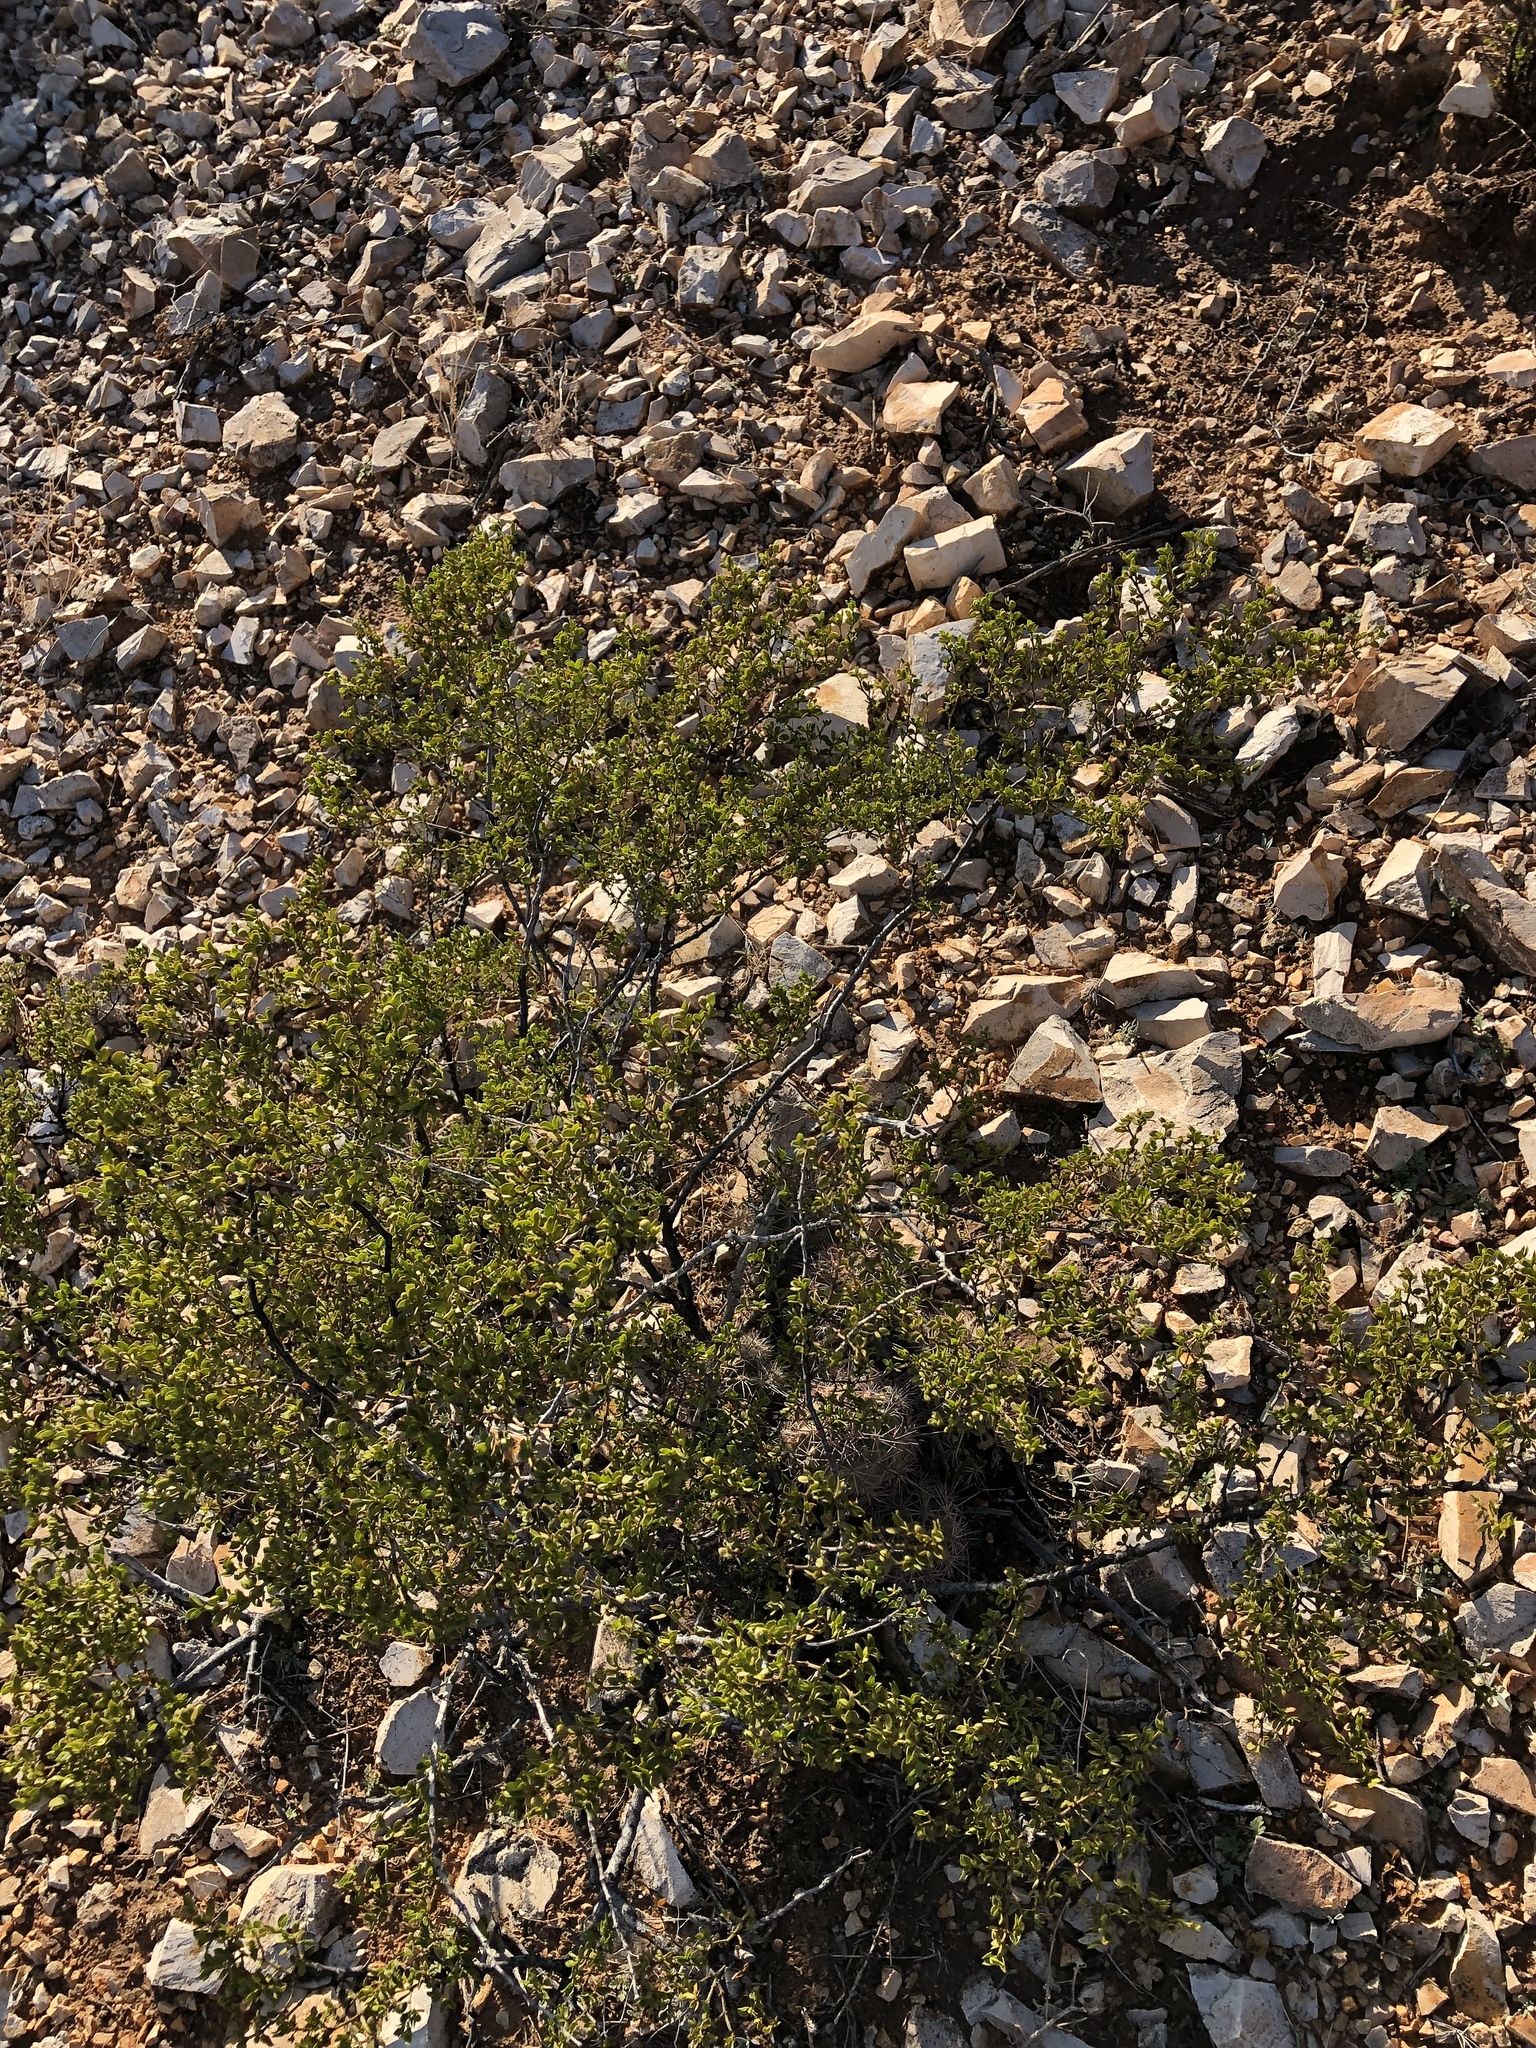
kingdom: Plantae
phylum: Tracheophyta
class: Magnoliopsida
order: Zygophyllales
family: Zygophyllaceae
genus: Larrea
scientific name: Larrea tridentata
